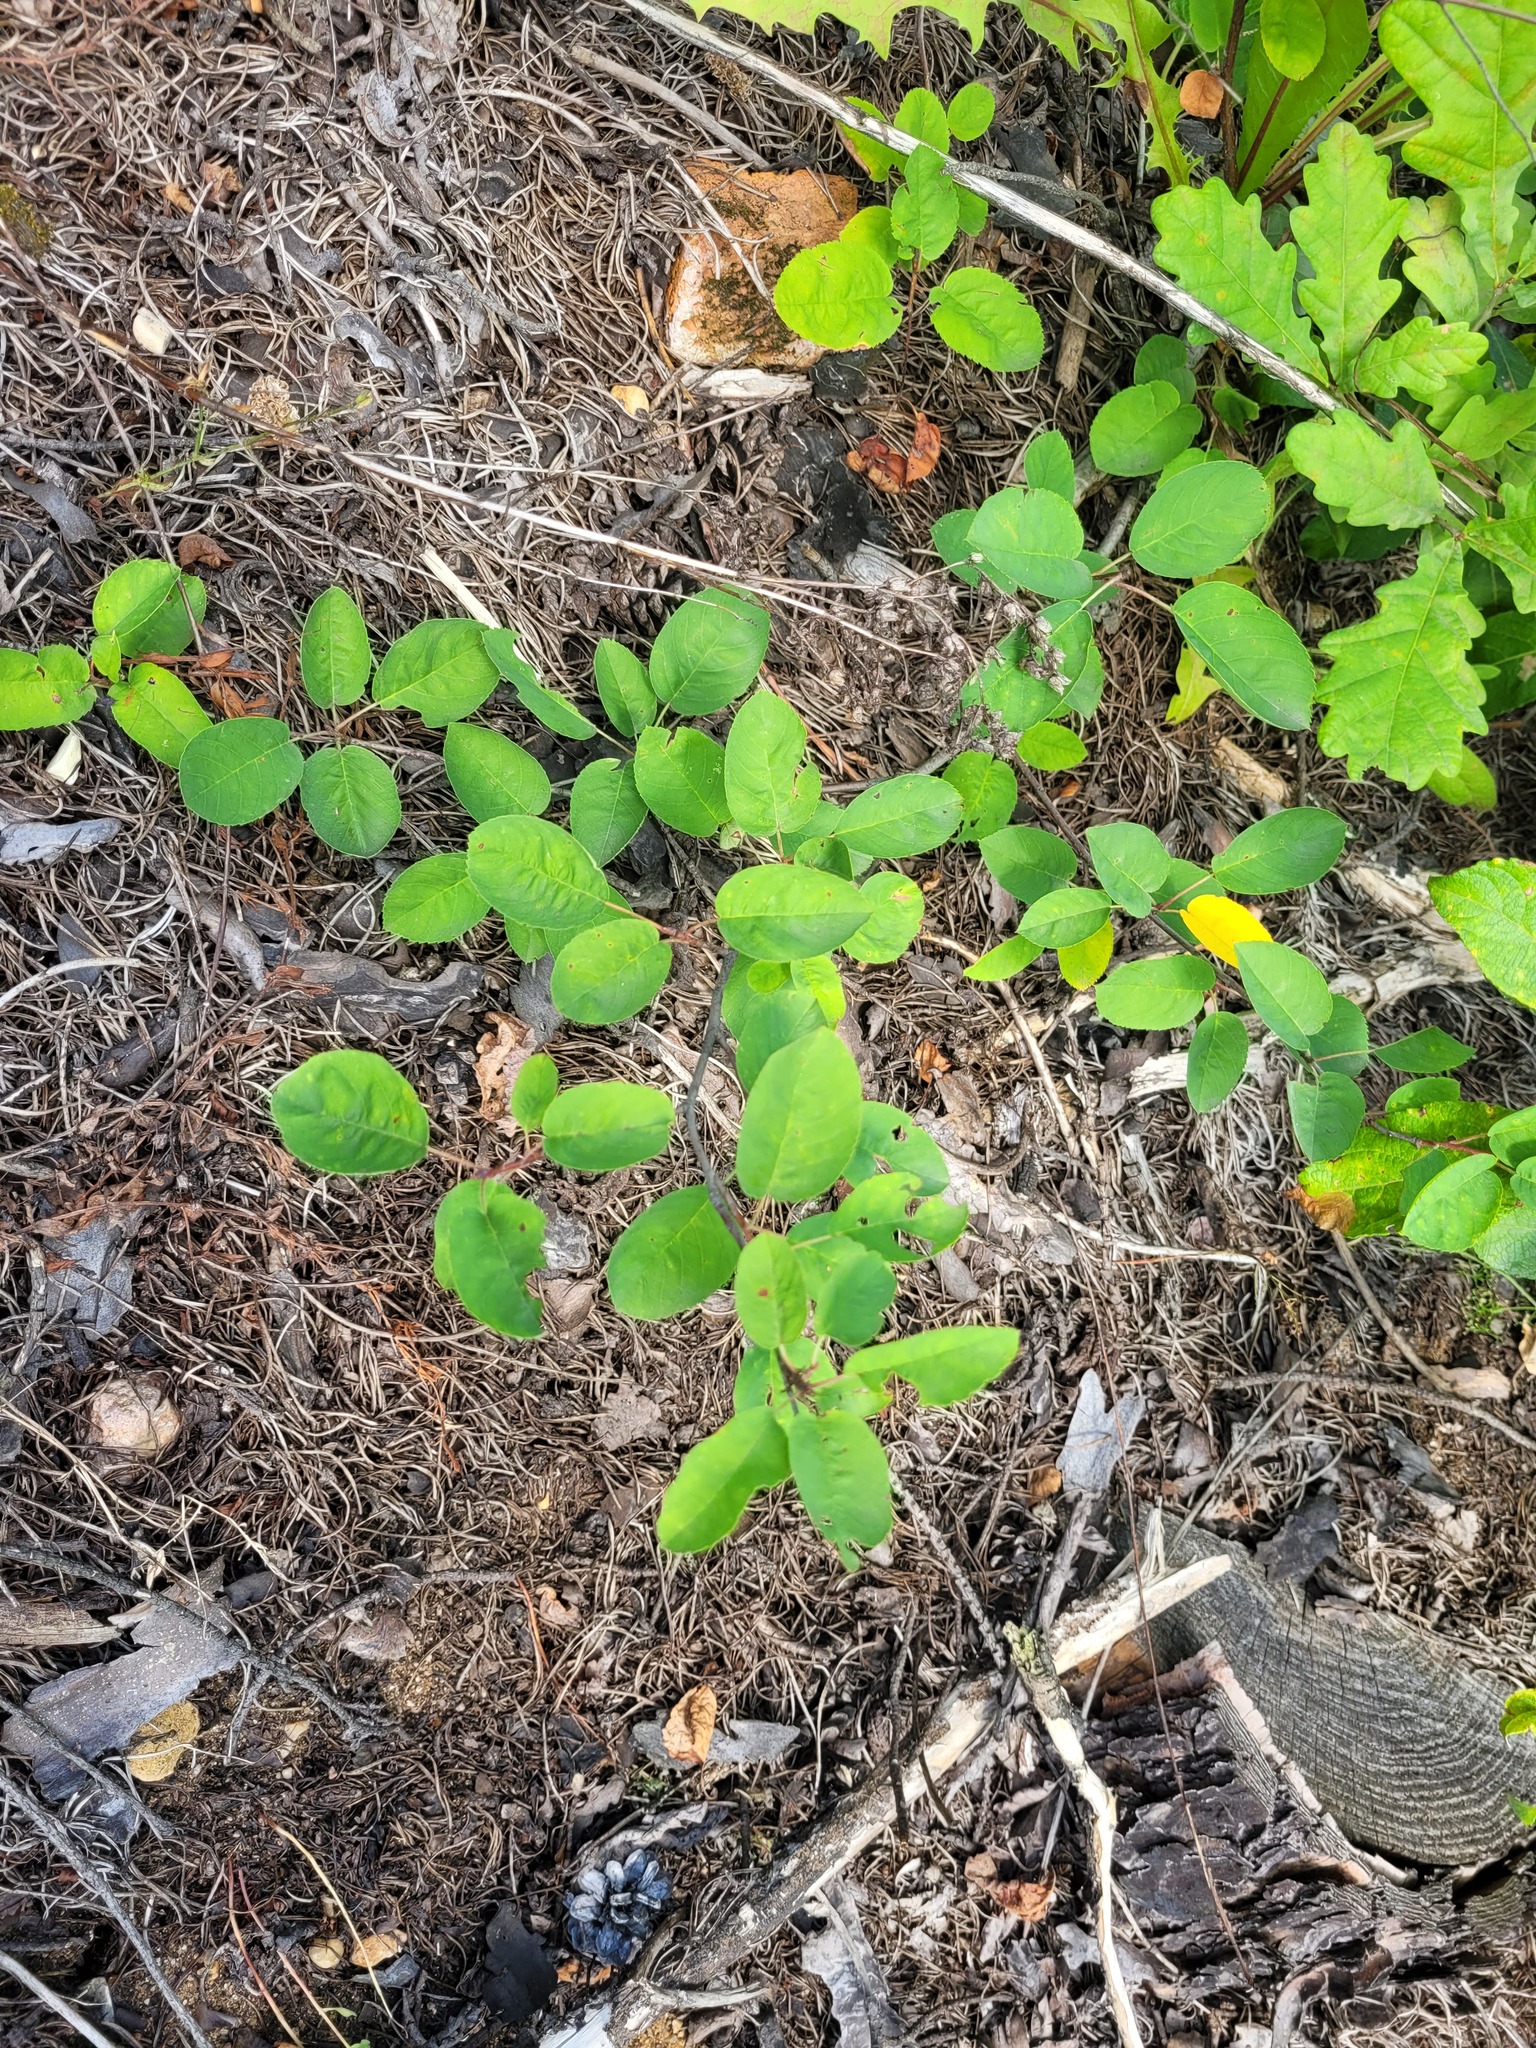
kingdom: Plantae
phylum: Tracheophyta
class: Magnoliopsida
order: Rosales
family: Rosaceae
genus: Amelanchier
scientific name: Amelanchier
